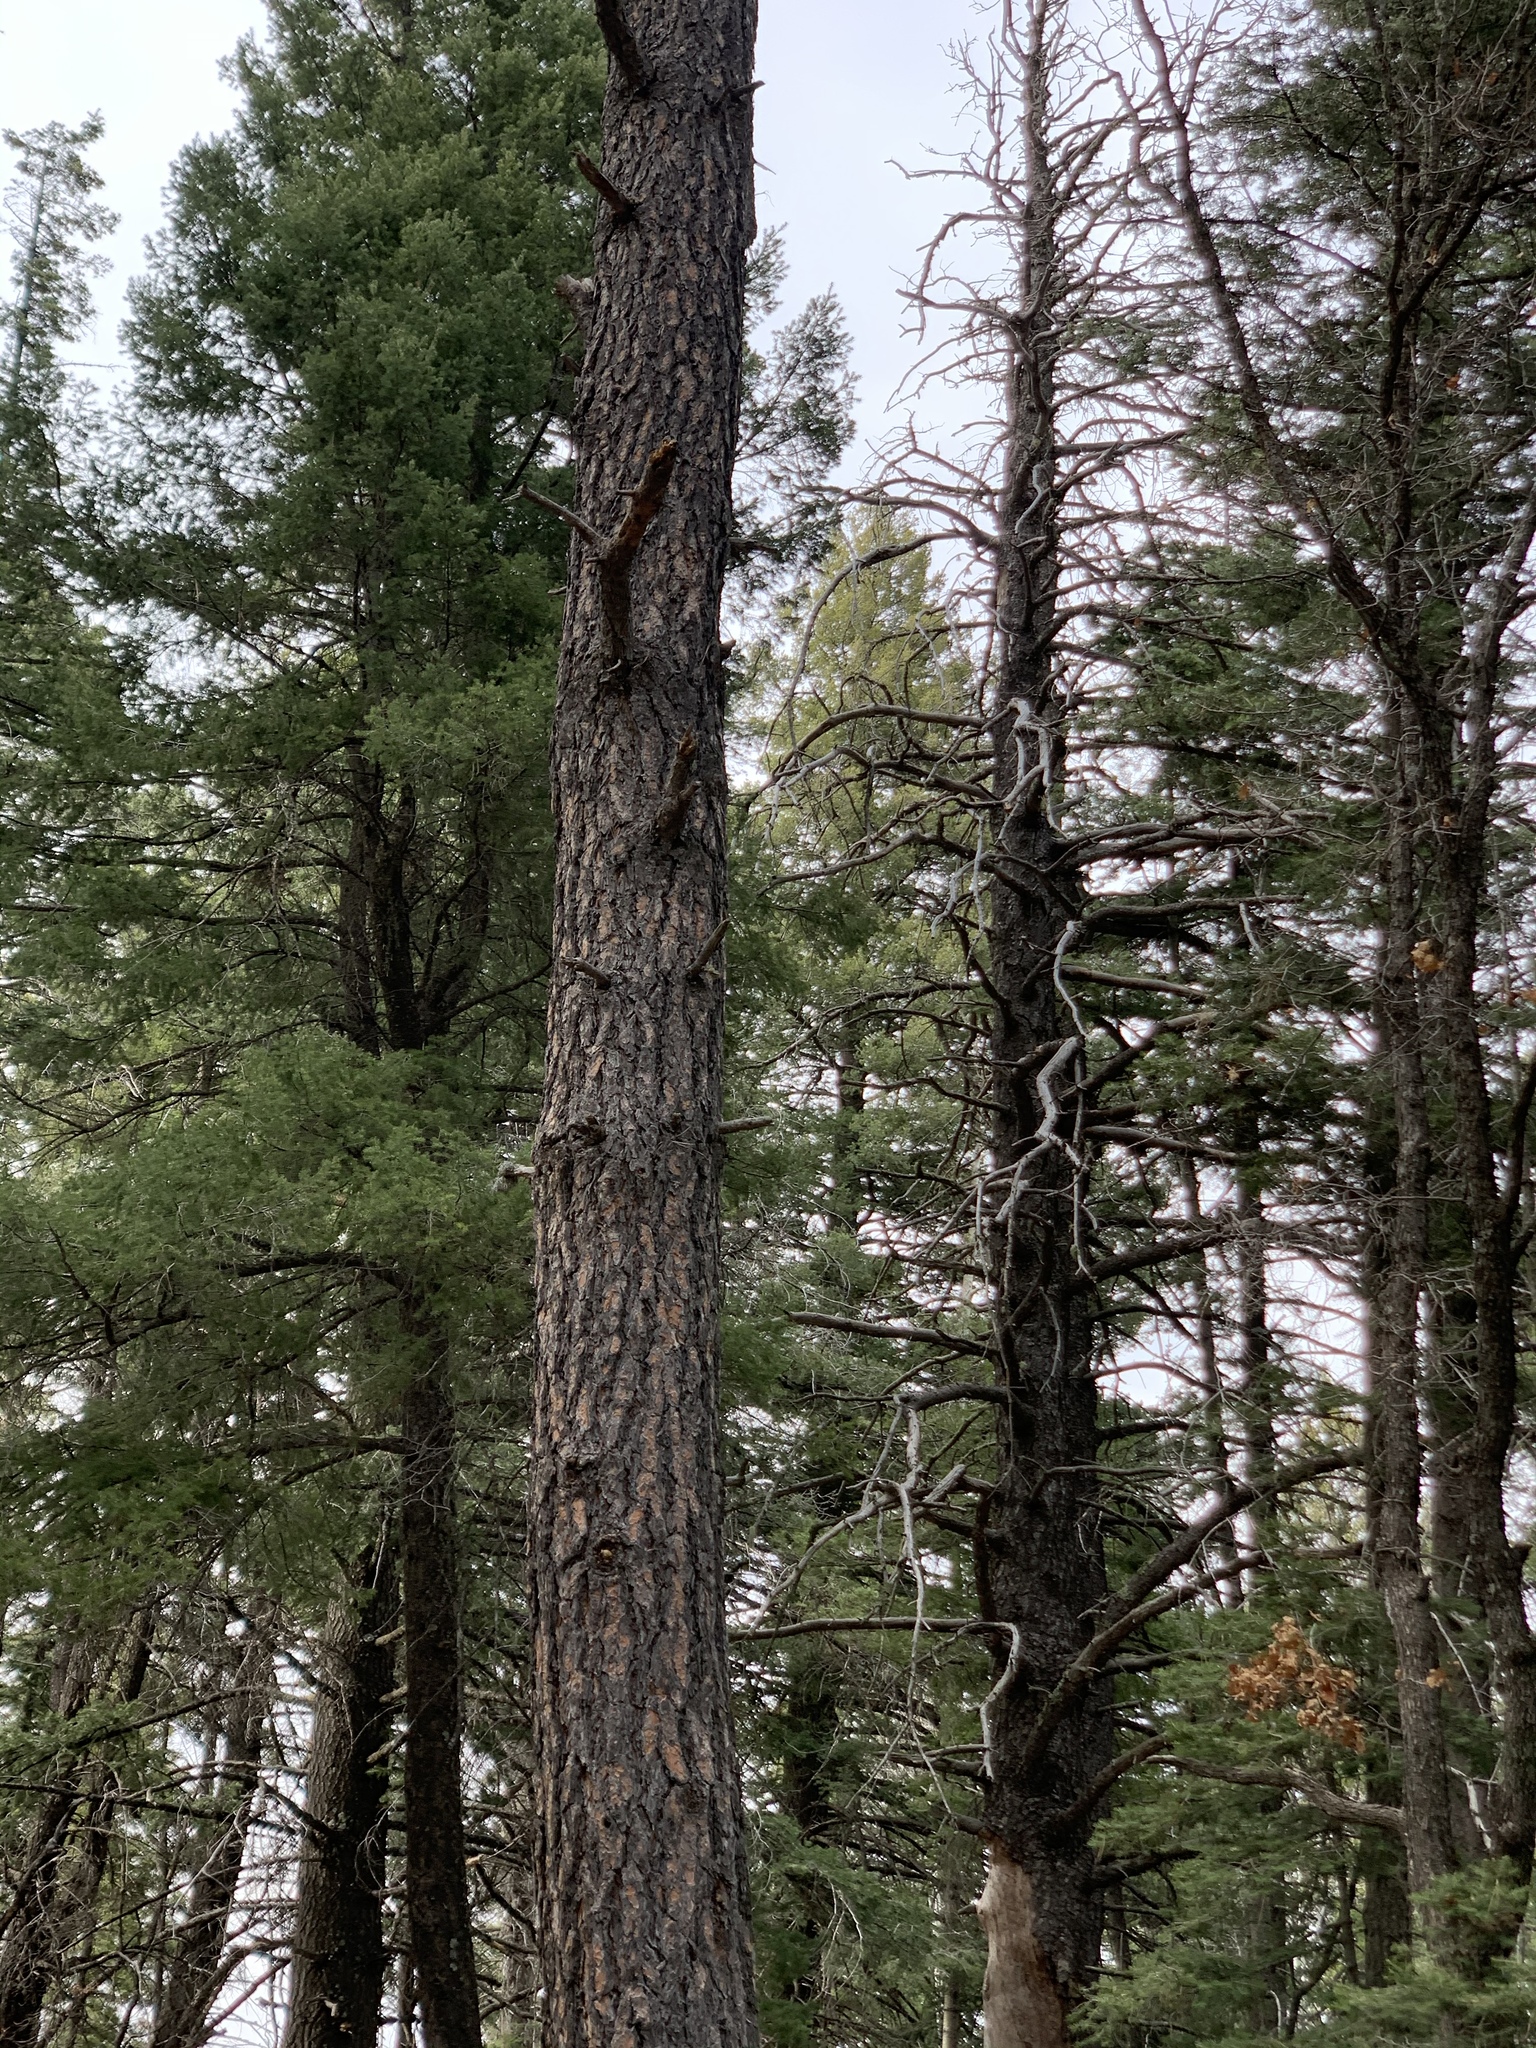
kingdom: Plantae
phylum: Tracheophyta
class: Pinopsida
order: Pinales
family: Pinaceae
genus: Pinus
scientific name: Pinus ponderosa
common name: Western yellow-pine
